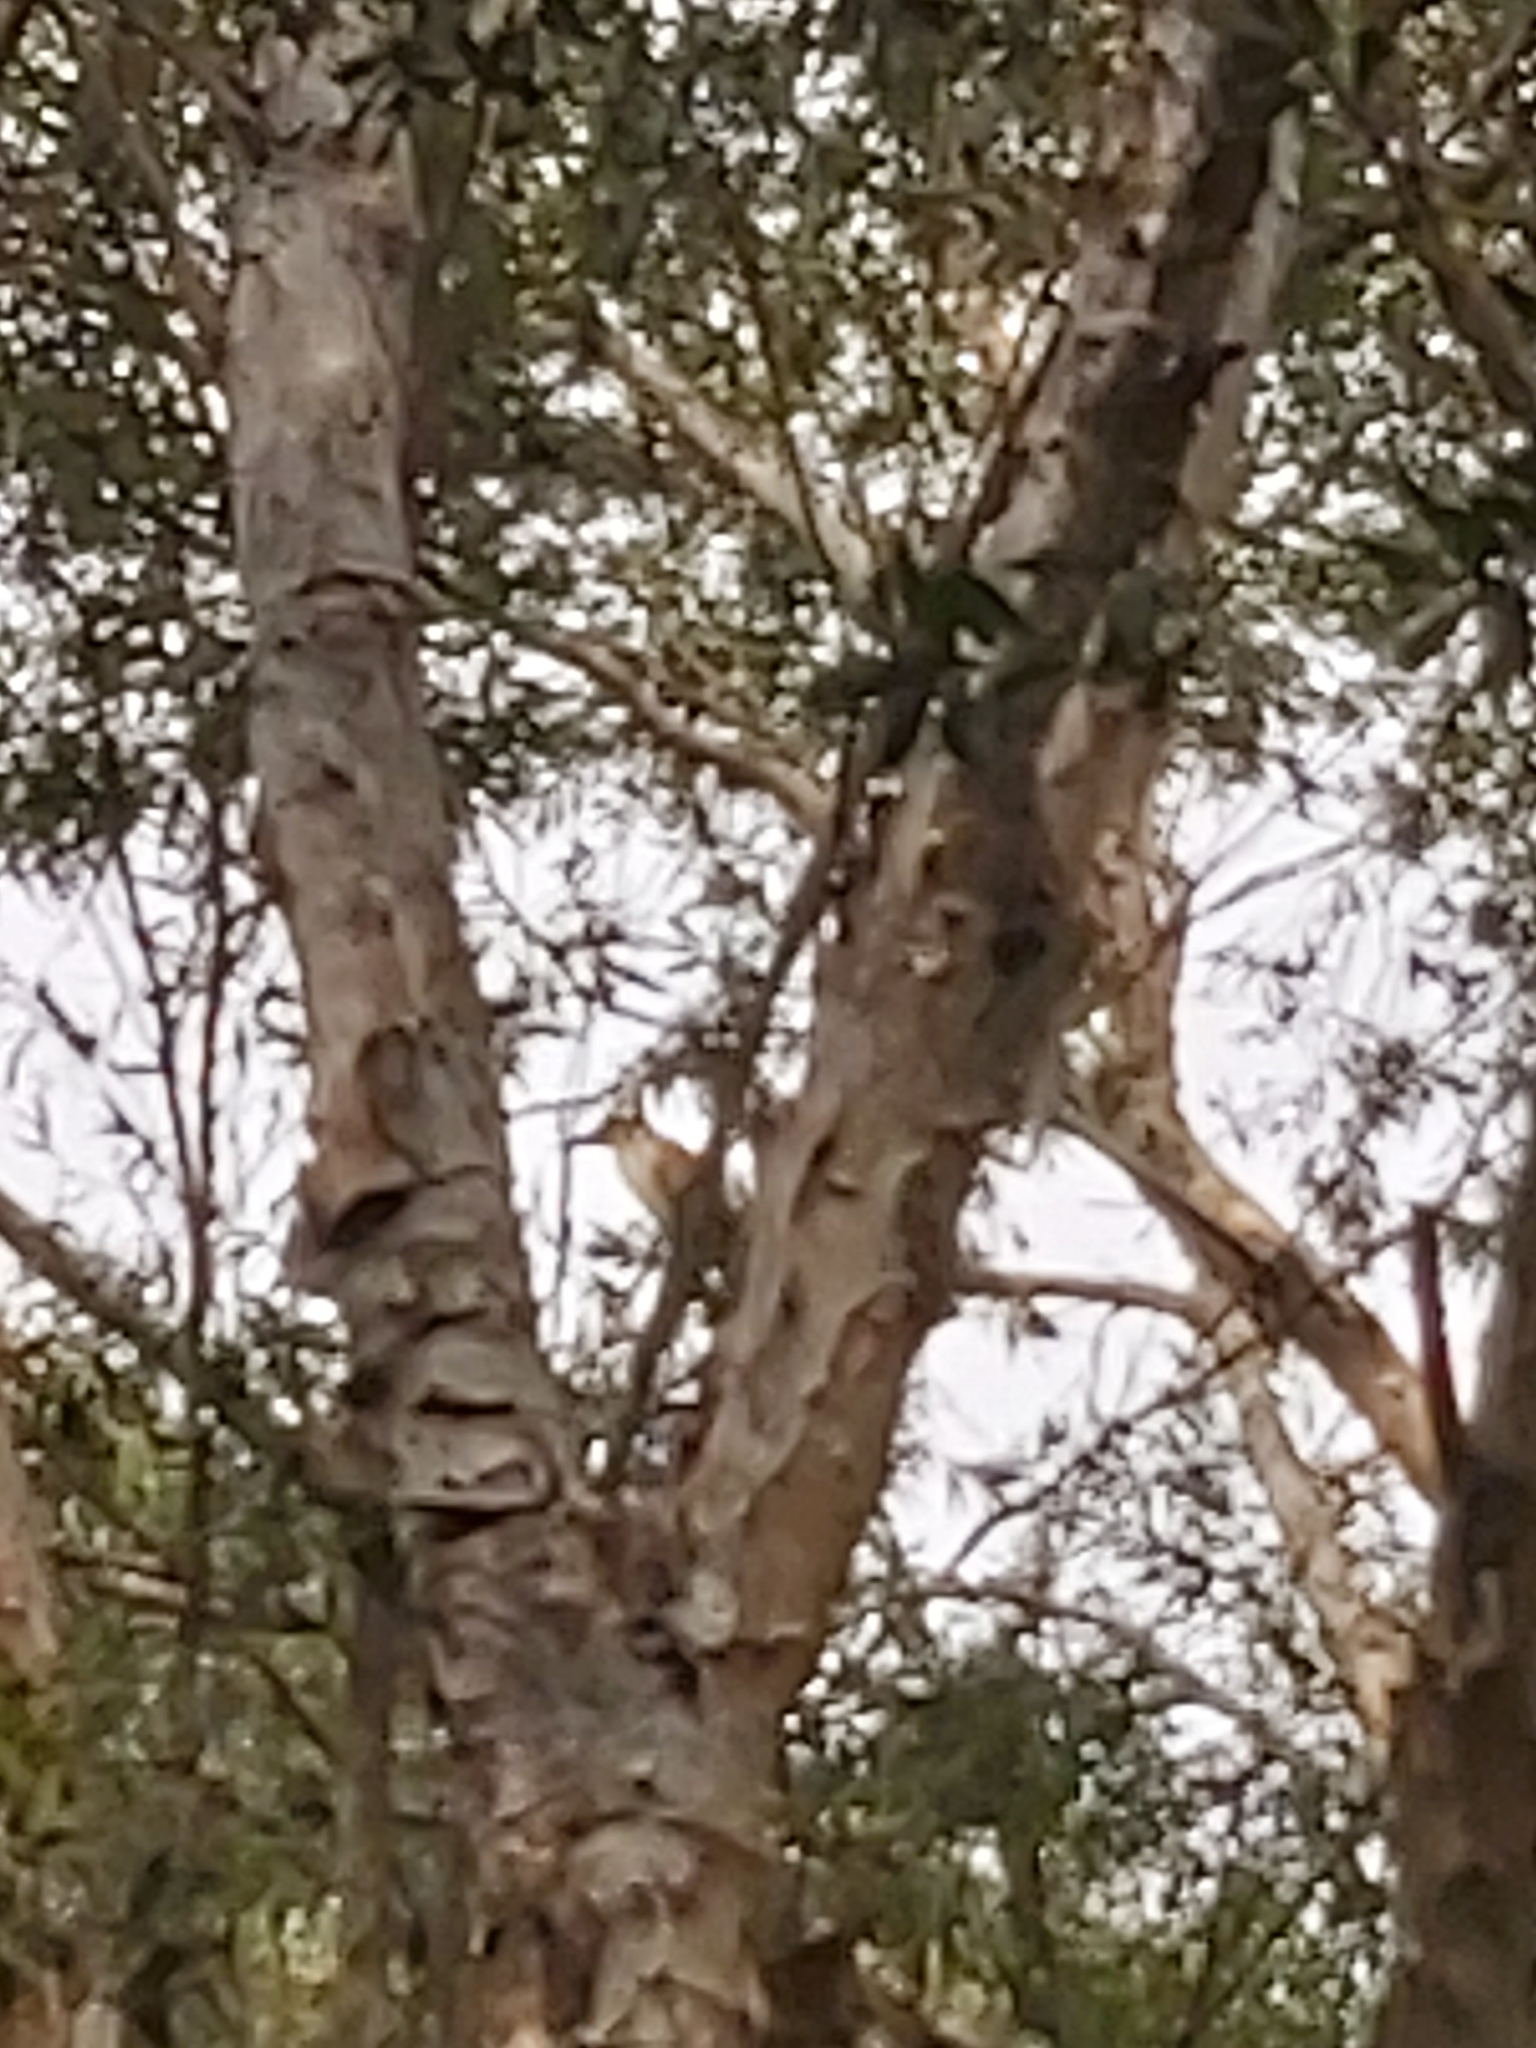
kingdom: Animalia
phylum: Chordata
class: Aves
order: Pelecaniformes
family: Ardeidae
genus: Nycticorax
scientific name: Nycticorax caledonicus
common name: Rufous night-heron
